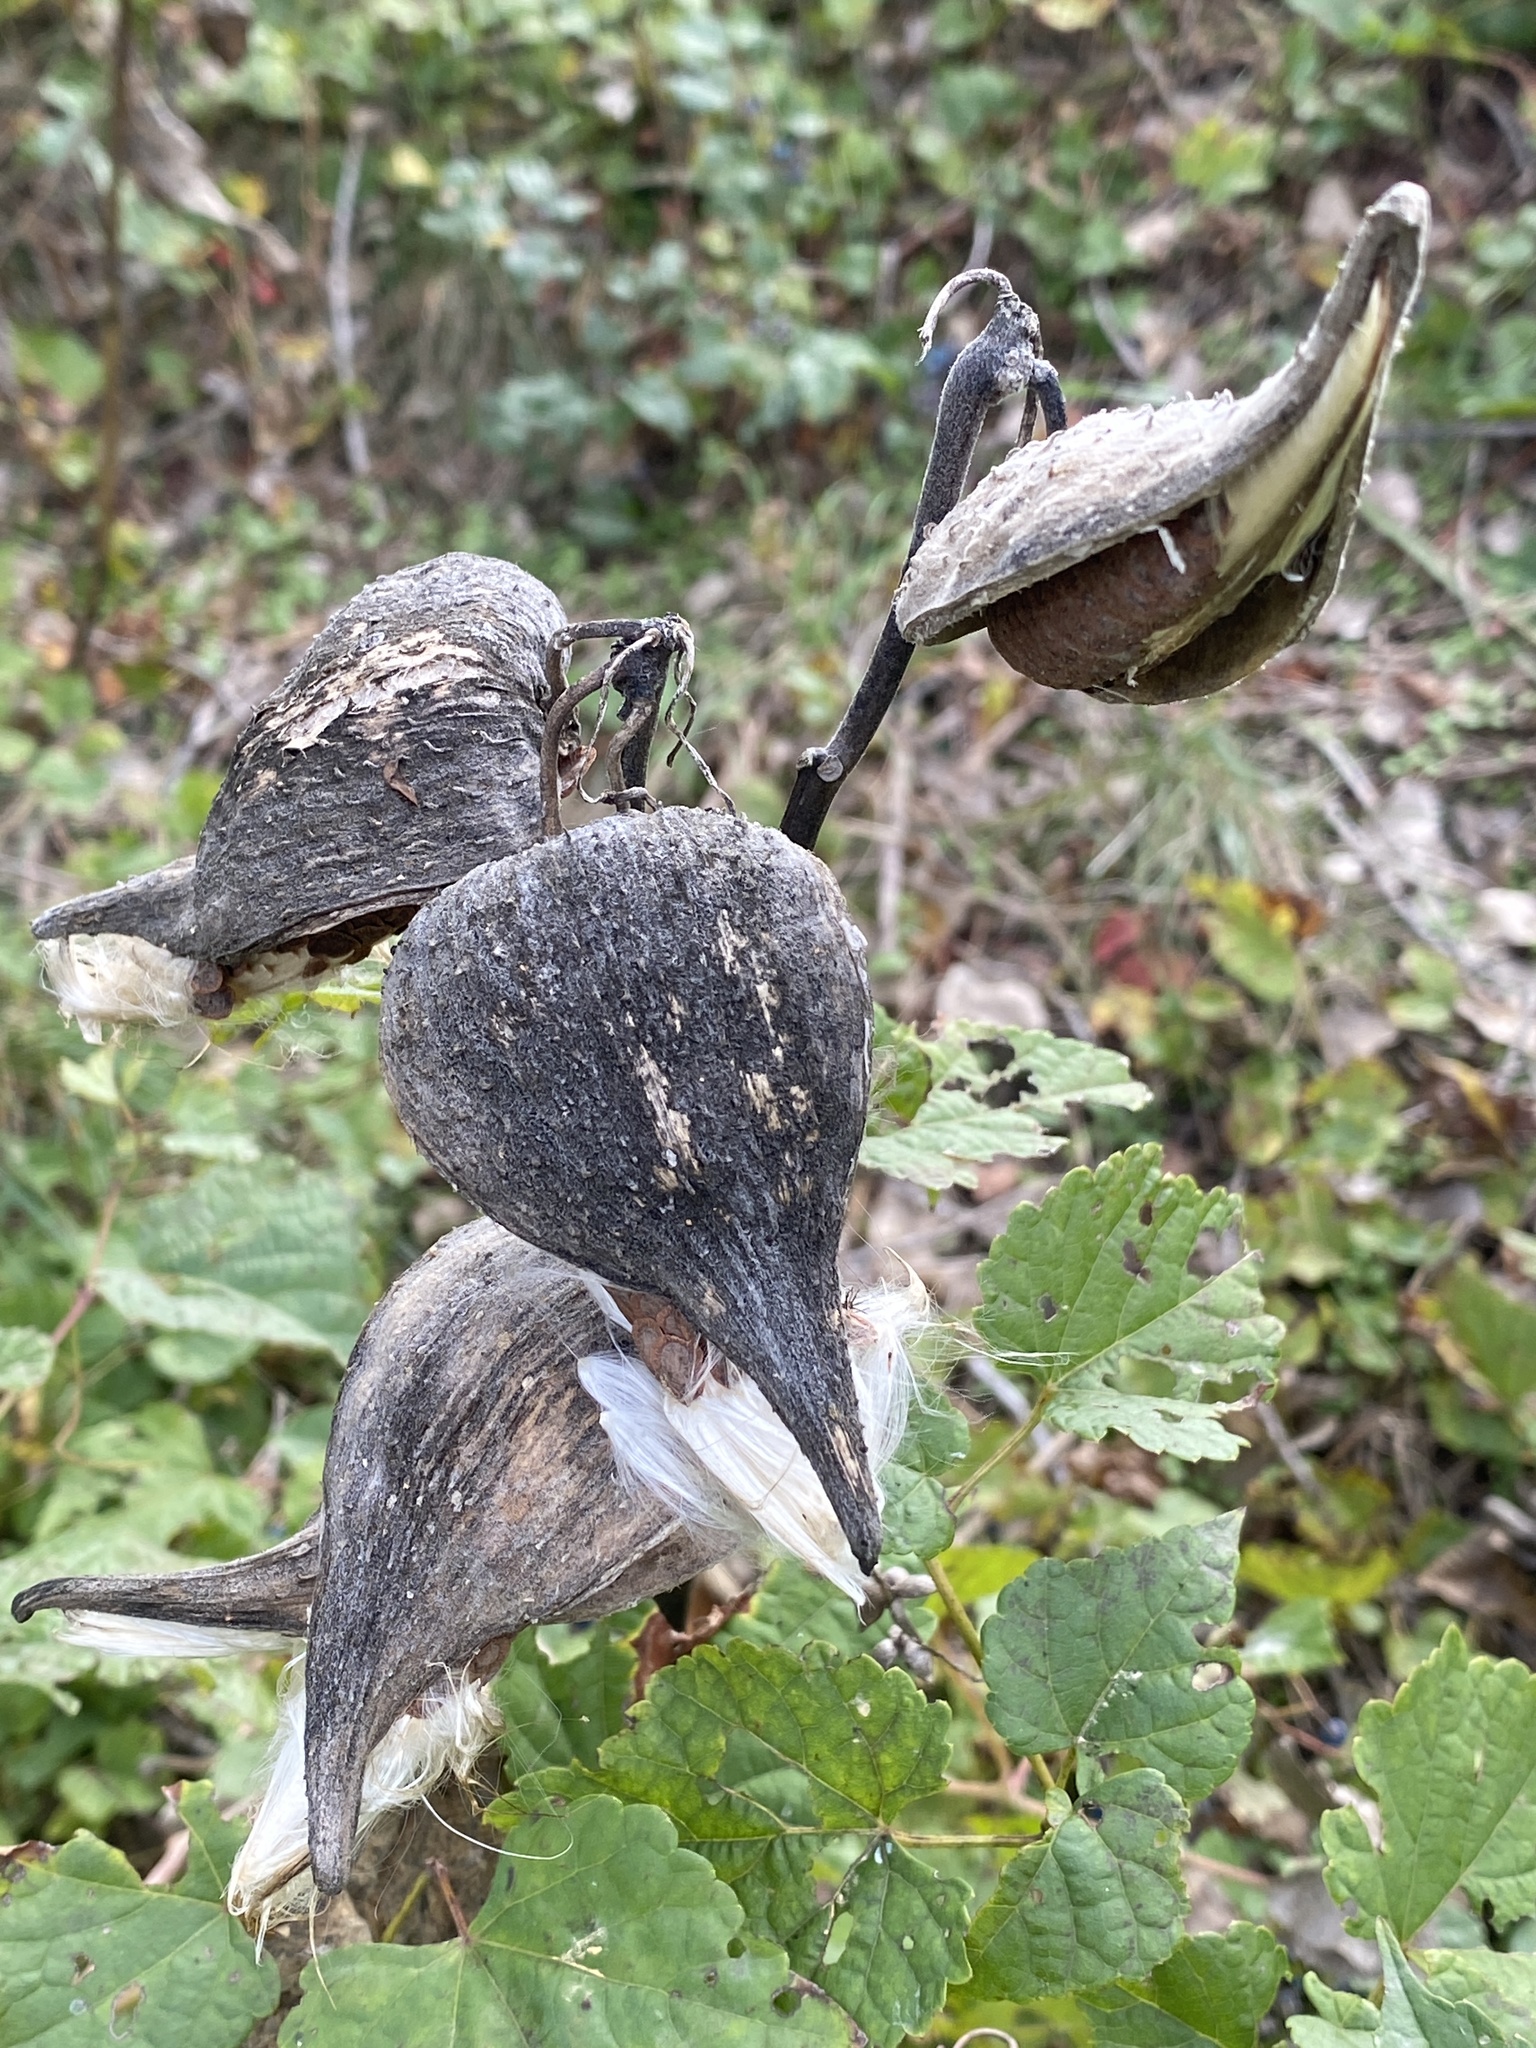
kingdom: Plantae
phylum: Tracheophyta
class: Magnoliopsida
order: Gentianales
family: Apocynaceae
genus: Asclepias
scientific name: Asclepias syriaca
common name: Common milkweed
